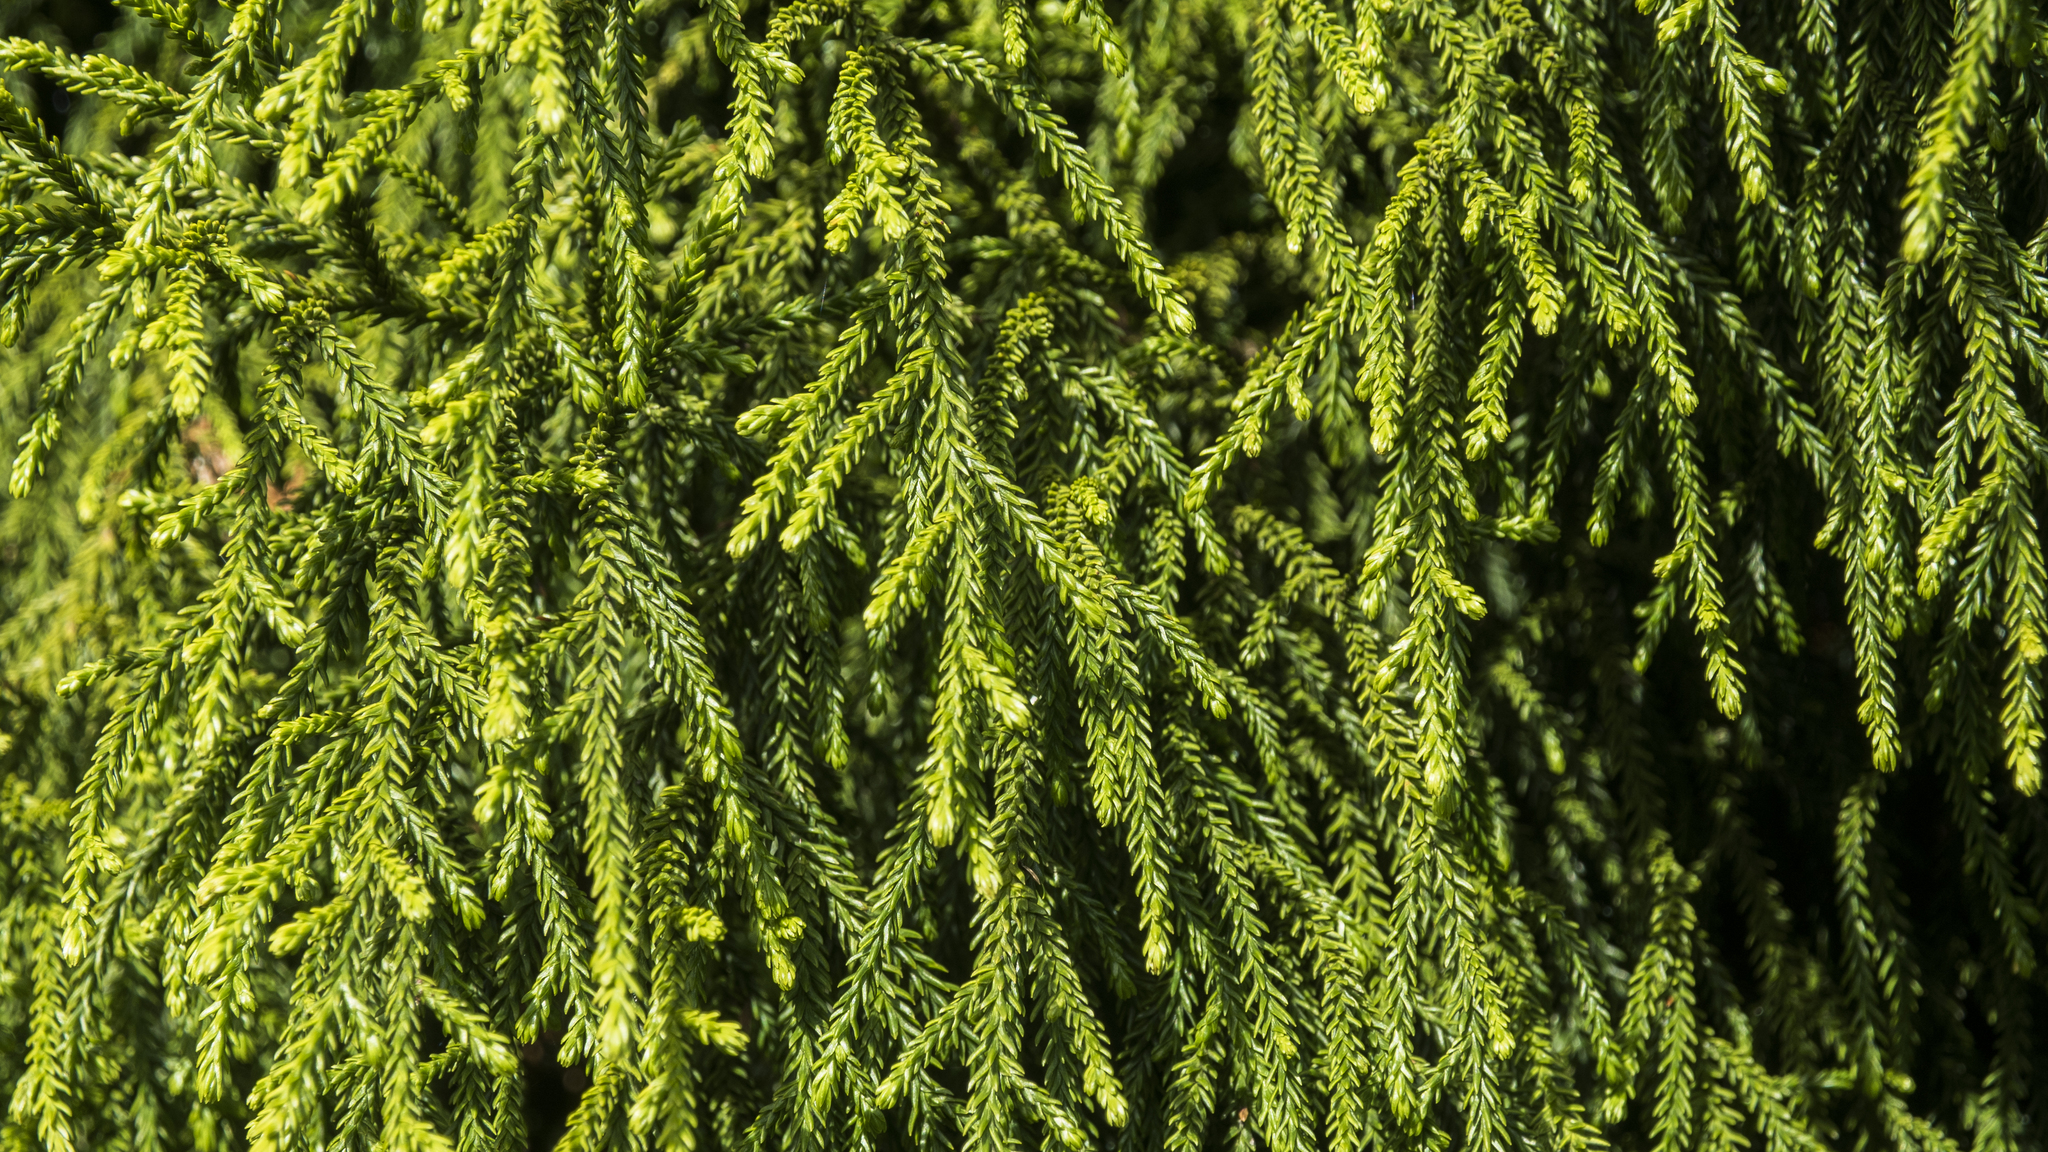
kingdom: Plantae
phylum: Tracheophyta
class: Pinopsida
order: Pinales
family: Podocarpaceae
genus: Dacrydium
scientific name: Dacrydium cupressinum
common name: Red pine
